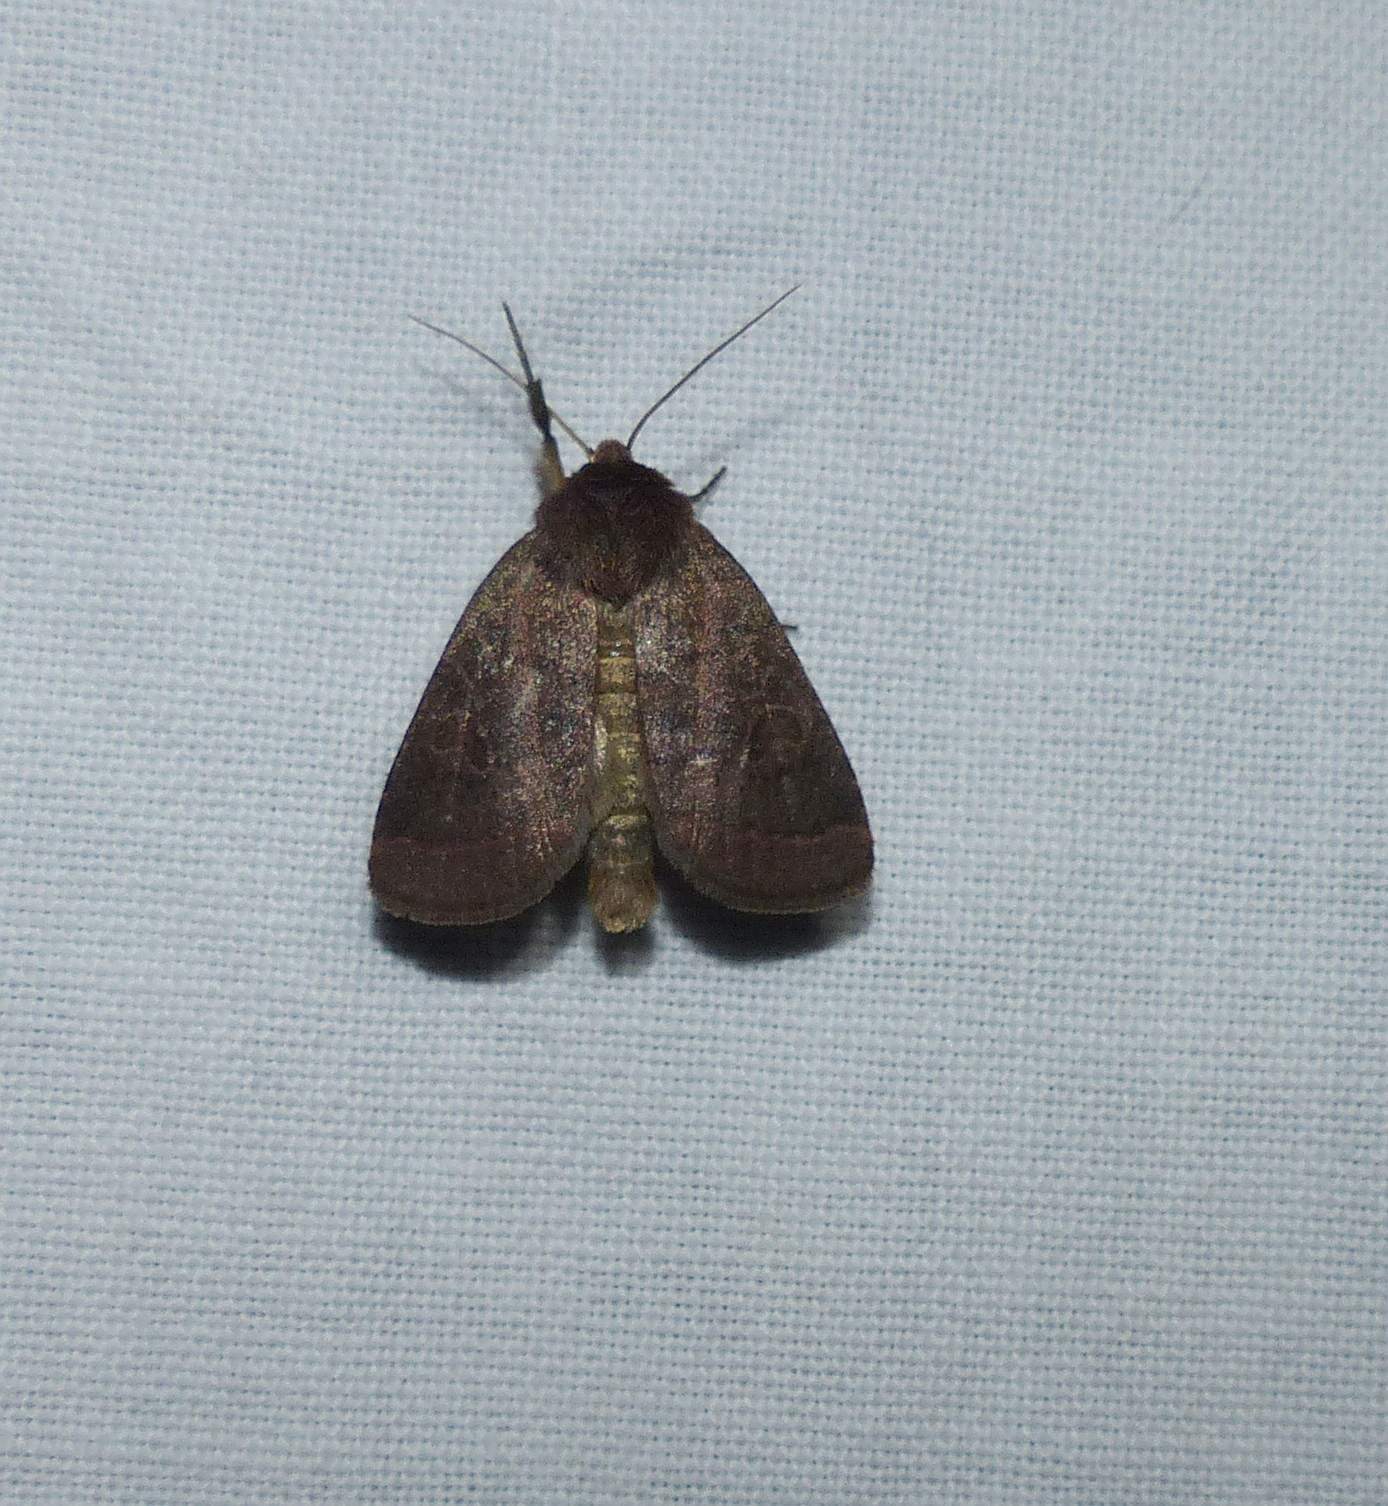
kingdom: Animalia
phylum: Arthropoda
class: Insecta
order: Lepidoptera
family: Noctuidae
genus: Orthodes
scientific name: Orthodes cynica
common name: Cynical quaker
